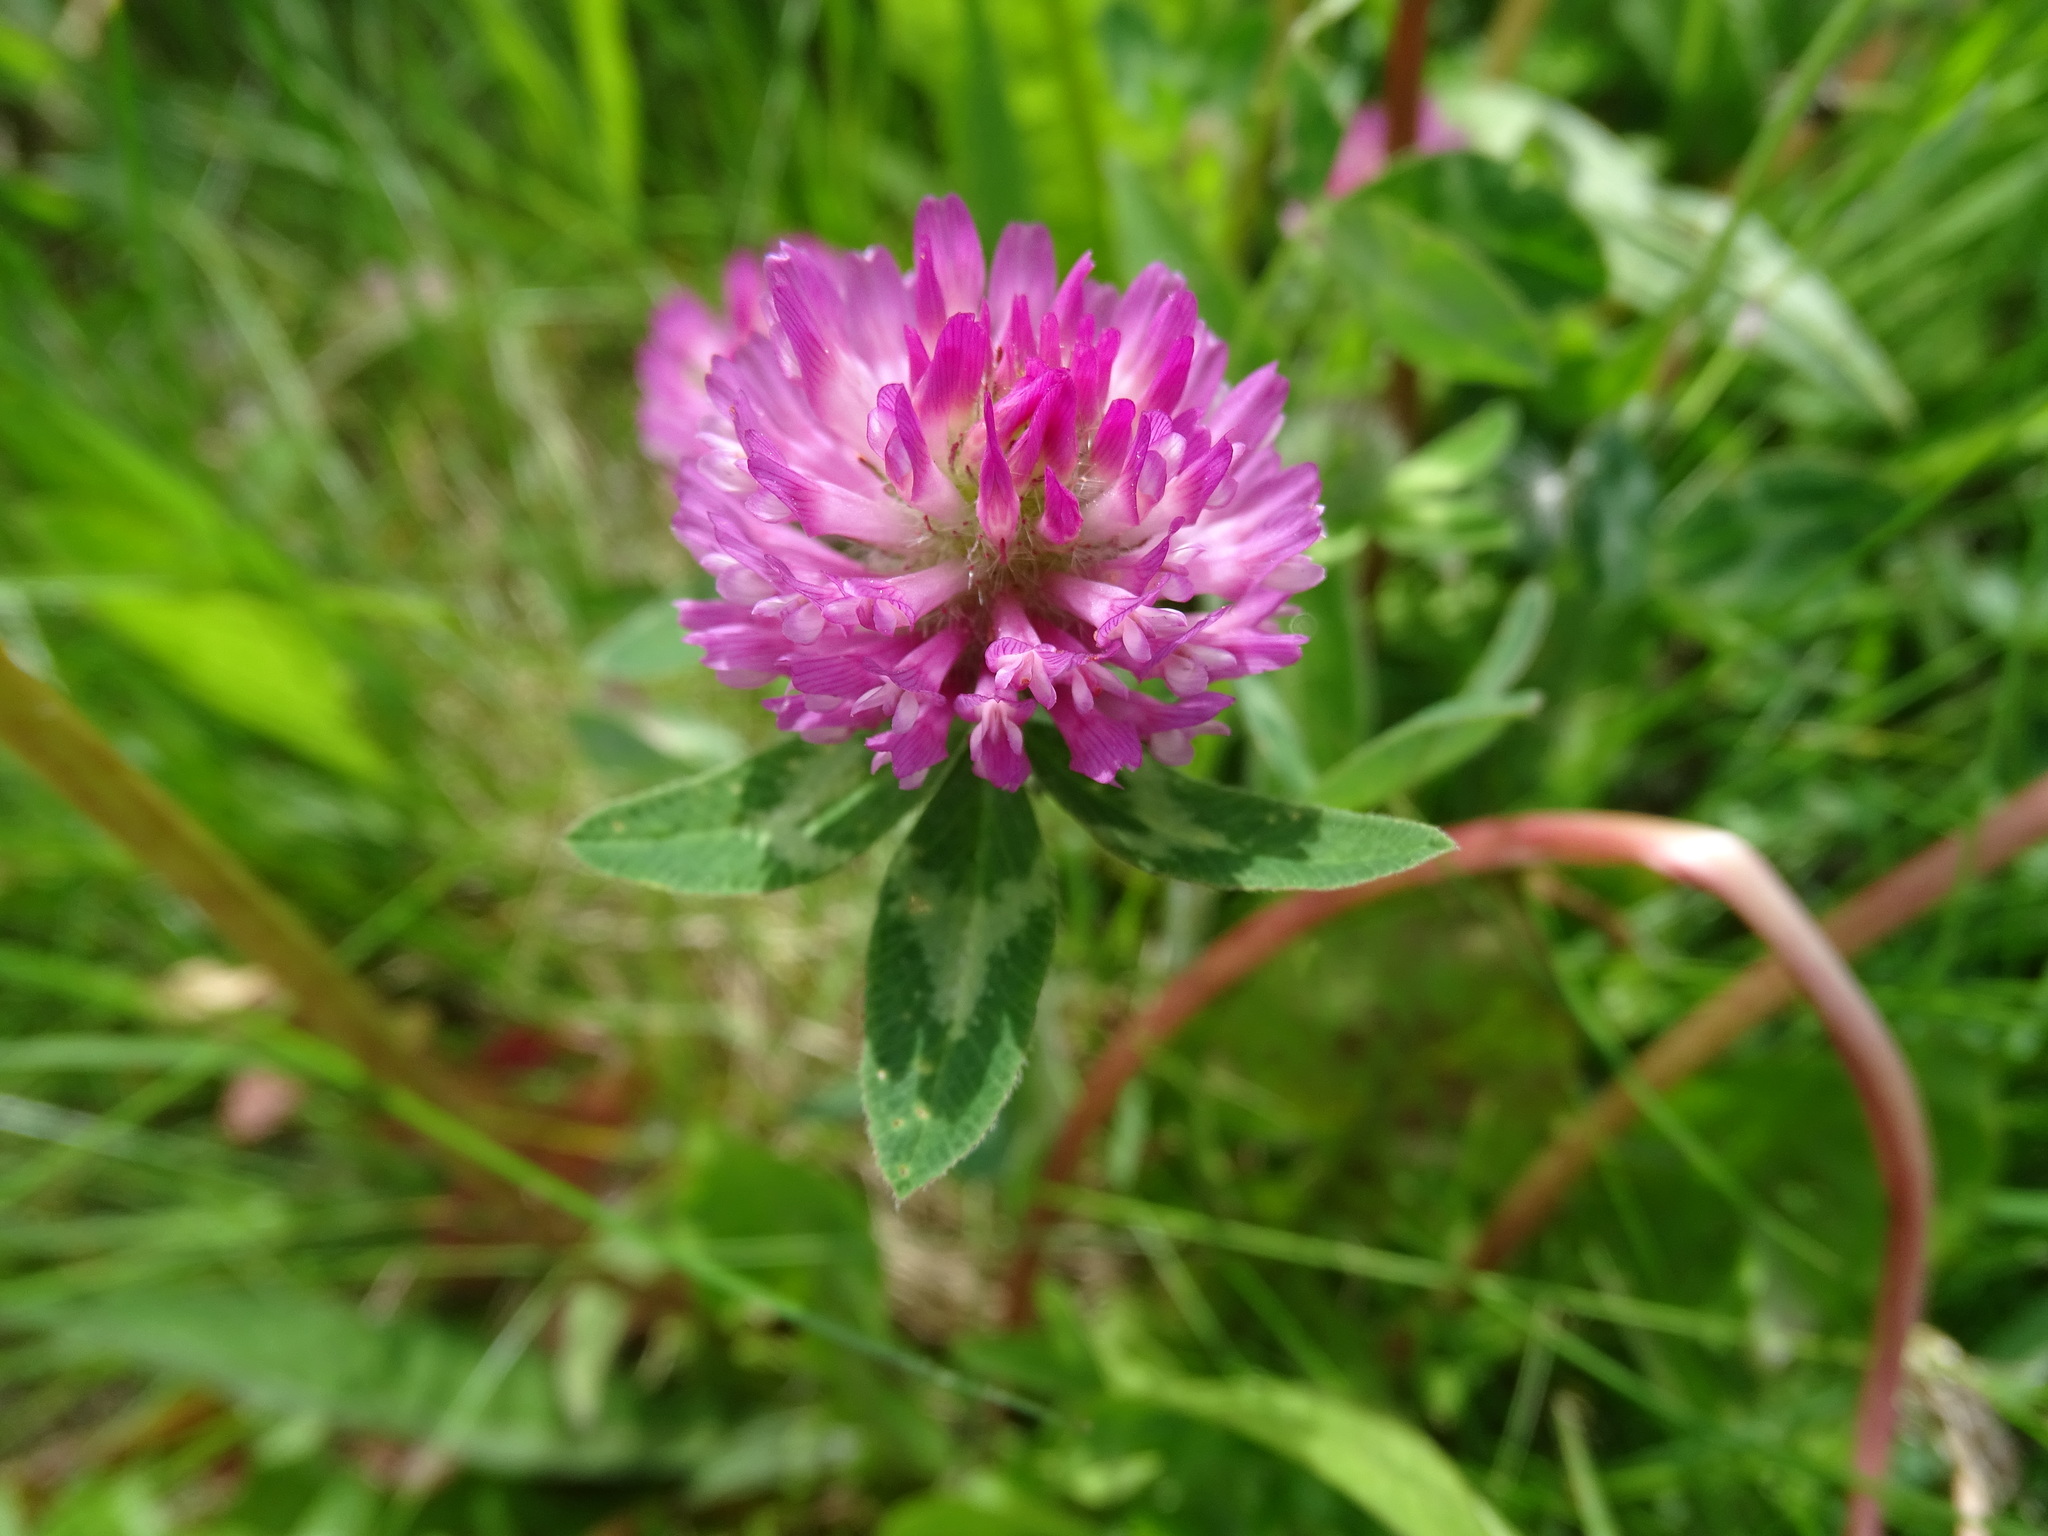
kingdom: Plantae
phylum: Tracheophyta
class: Magnoliopsida
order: Fabales
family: Fabaceae
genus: Trifolium
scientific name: Trifolium pratense
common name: Red clover
